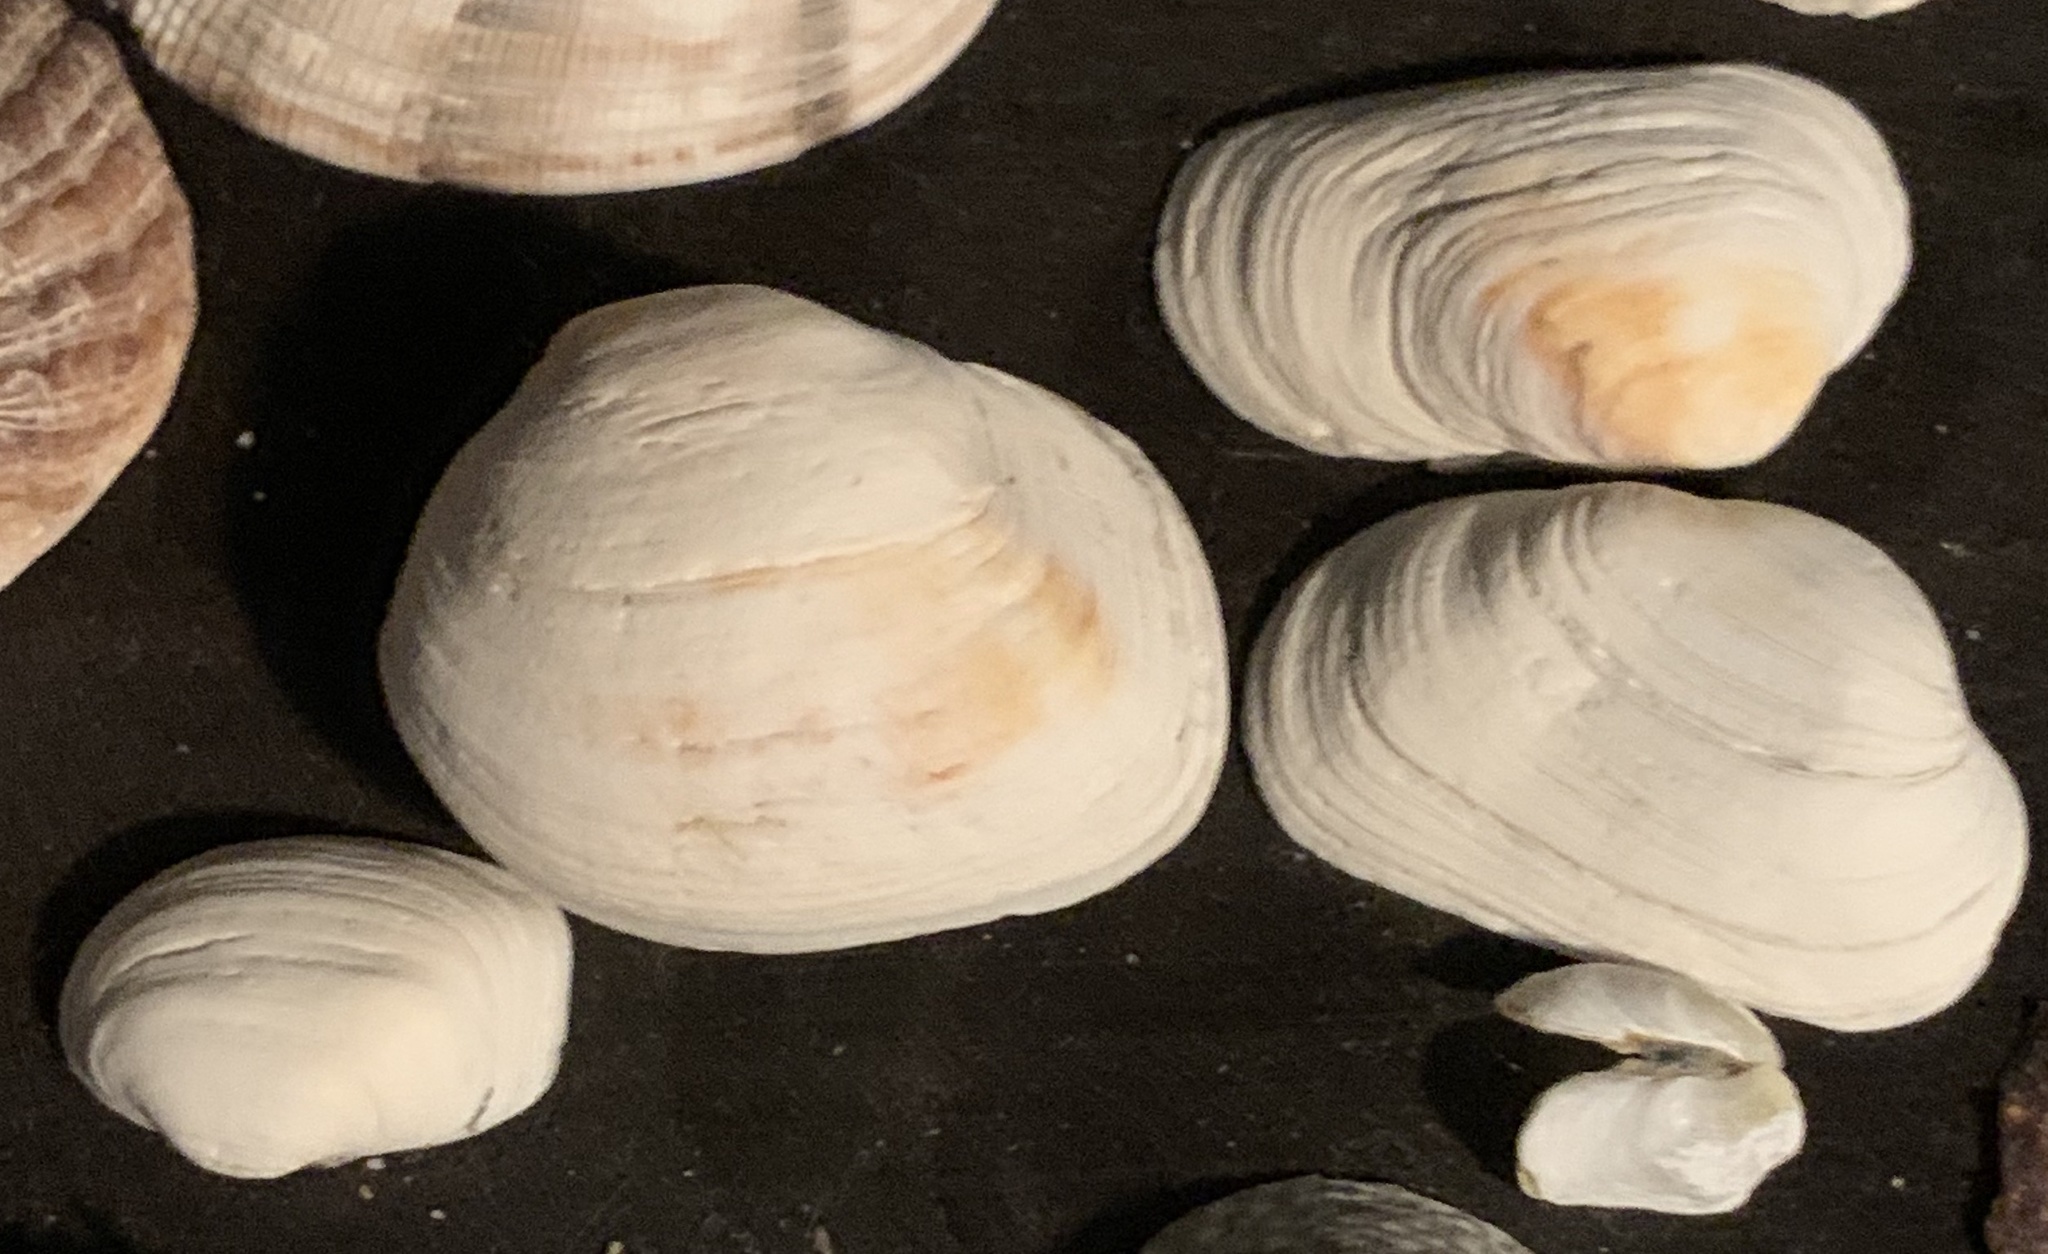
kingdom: Animalia
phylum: Mollusca
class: Bivalvia
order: Venerida
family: Veneridae
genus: Petricola
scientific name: Petricola carditoides
